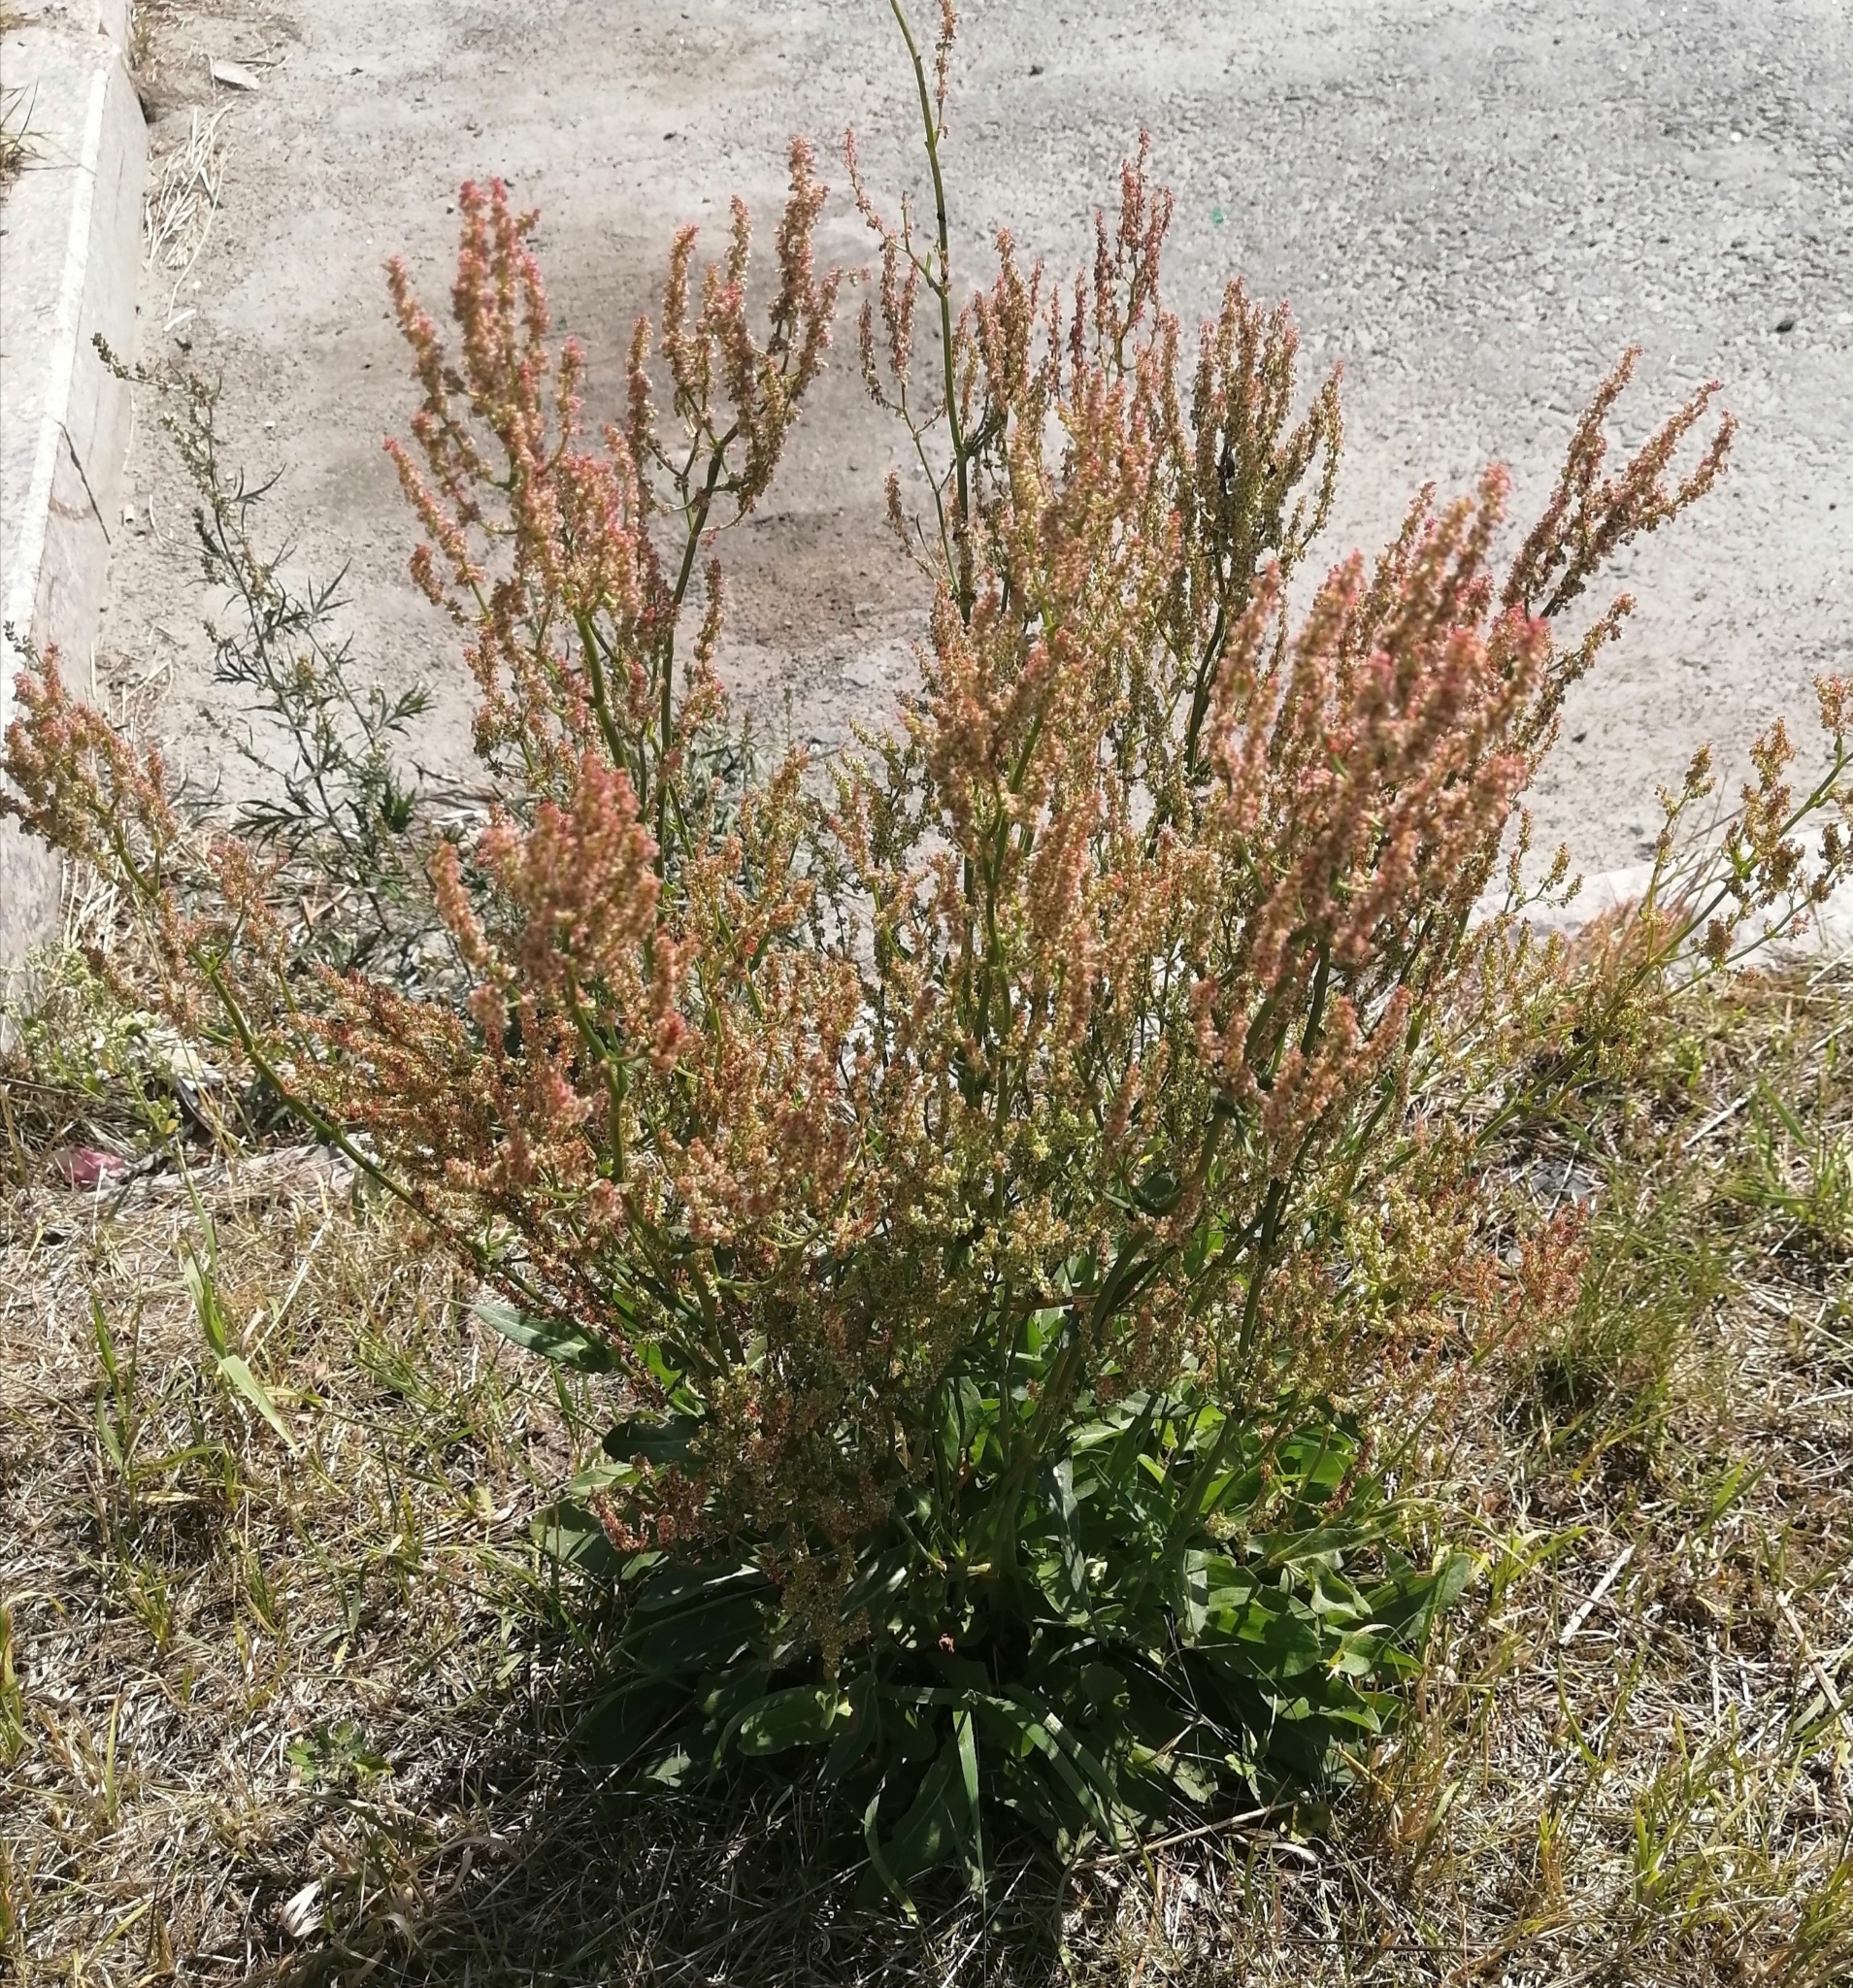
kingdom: Plantae
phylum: Tracheophyta
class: Magnoliopsida
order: Caryophyllales
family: Polygonaceae
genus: Rumex
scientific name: Rumex acetosa
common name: Garden sorrel
